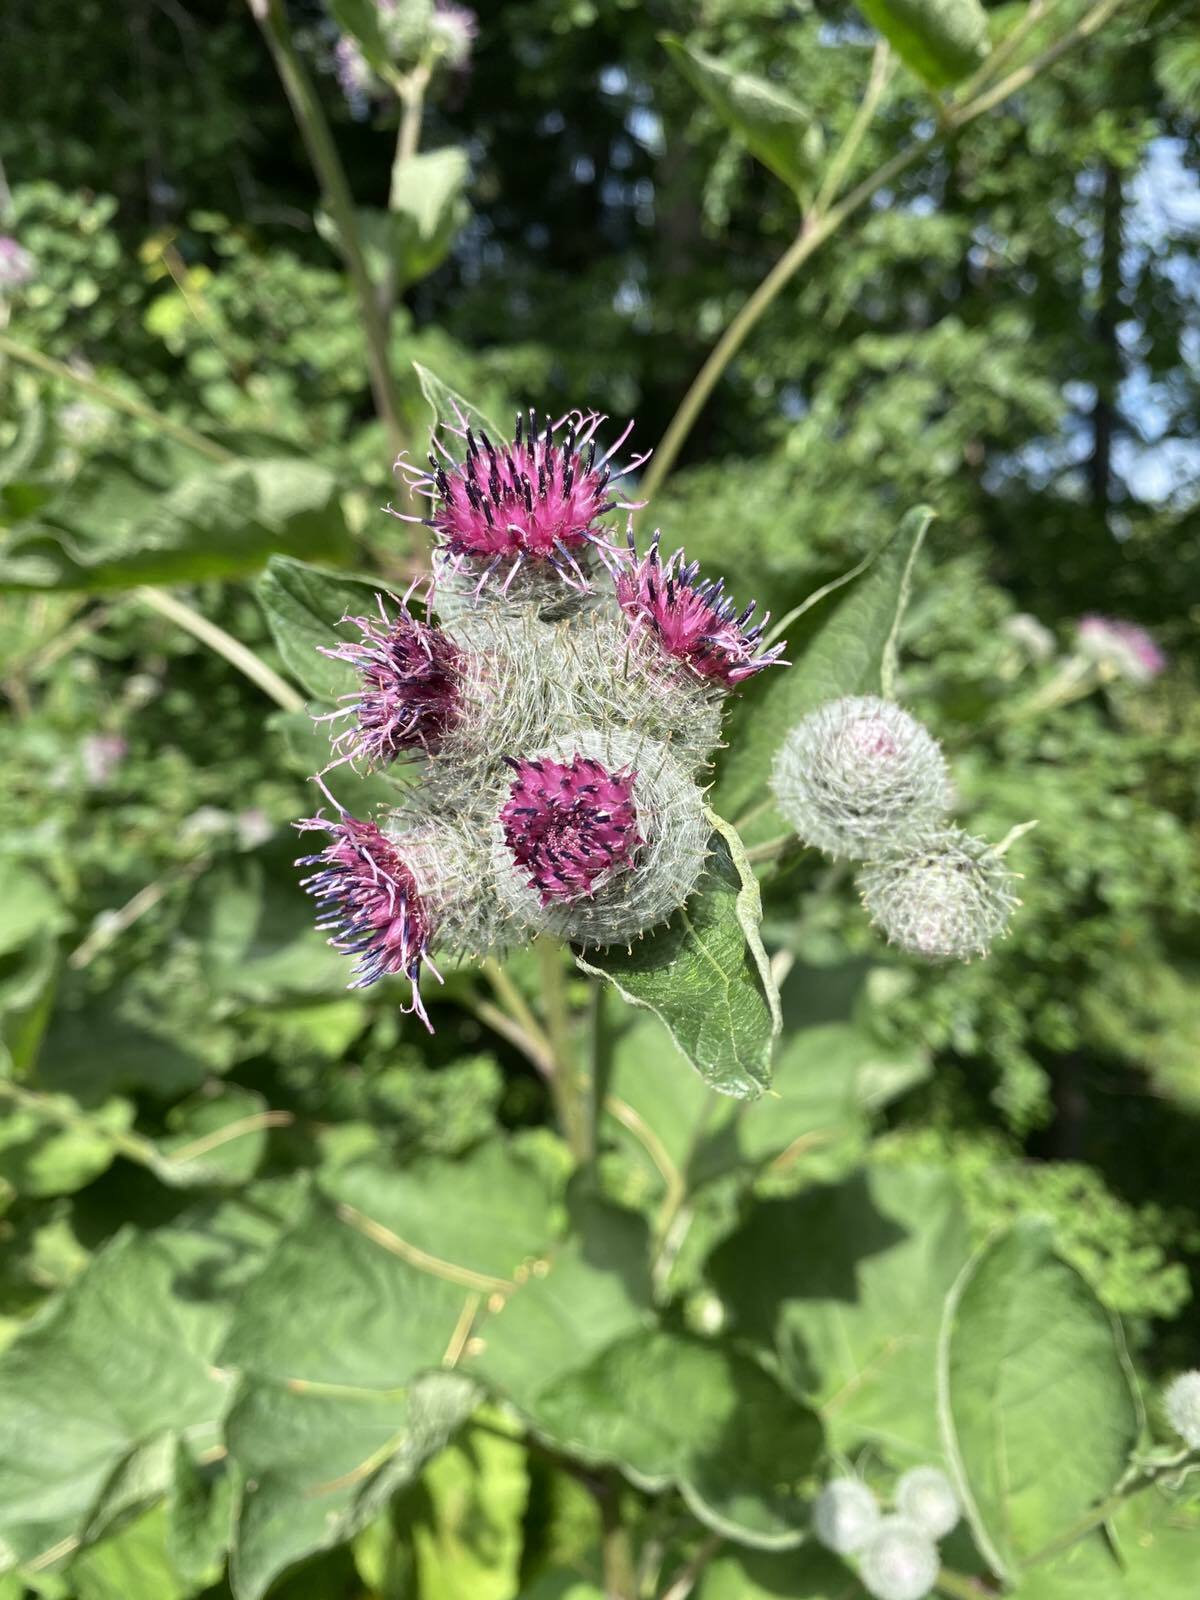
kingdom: Plantae
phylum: Tracheophyta
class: Magnoliopsida
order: Asterales
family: Asteraceae
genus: Arctium
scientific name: Arctium tomentosum
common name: Woolly burdock
